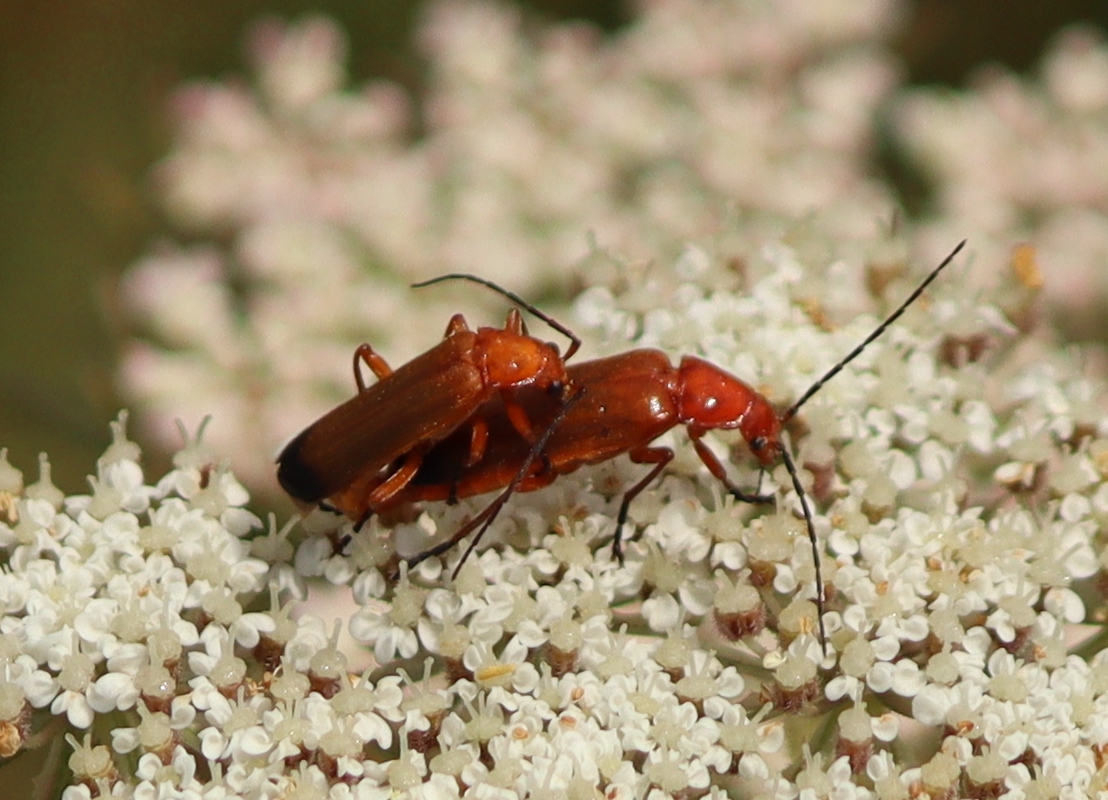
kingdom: Animalia
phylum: Arthropoda
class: Insecta
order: Coleoptera
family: Cantharidae
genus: Rhagonycha
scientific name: Rhagonycha fulva
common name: Common red soldier beetle
